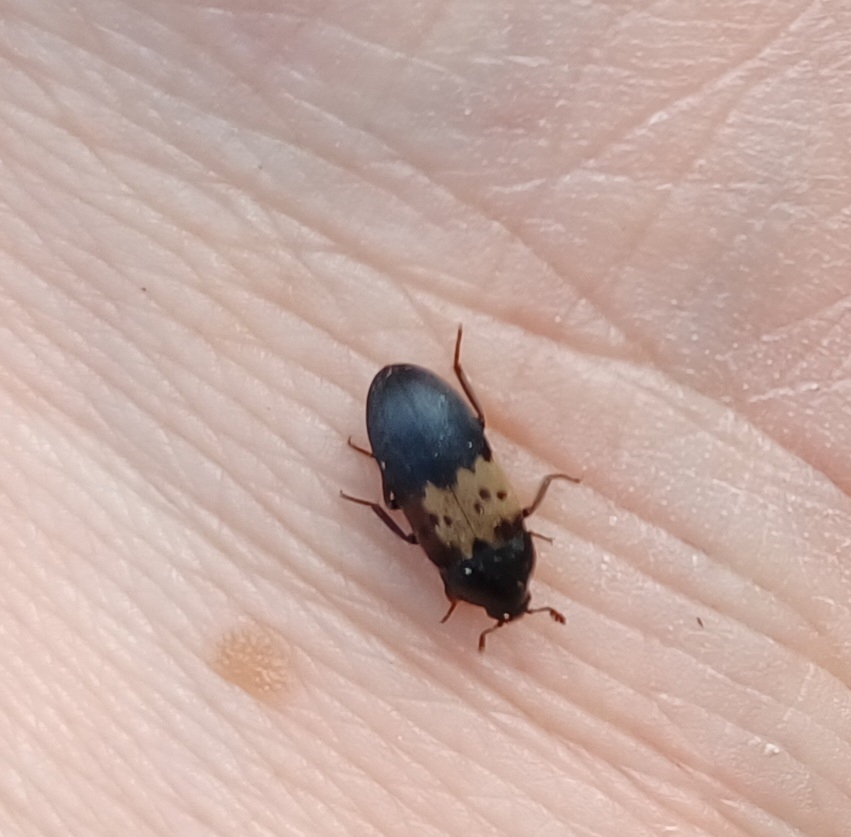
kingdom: Animalia
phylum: Arthropoda
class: Insecta
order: Coleoptera
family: Dermestidae
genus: Dermestes
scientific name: Dermestes lardarius
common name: Larder beetle
